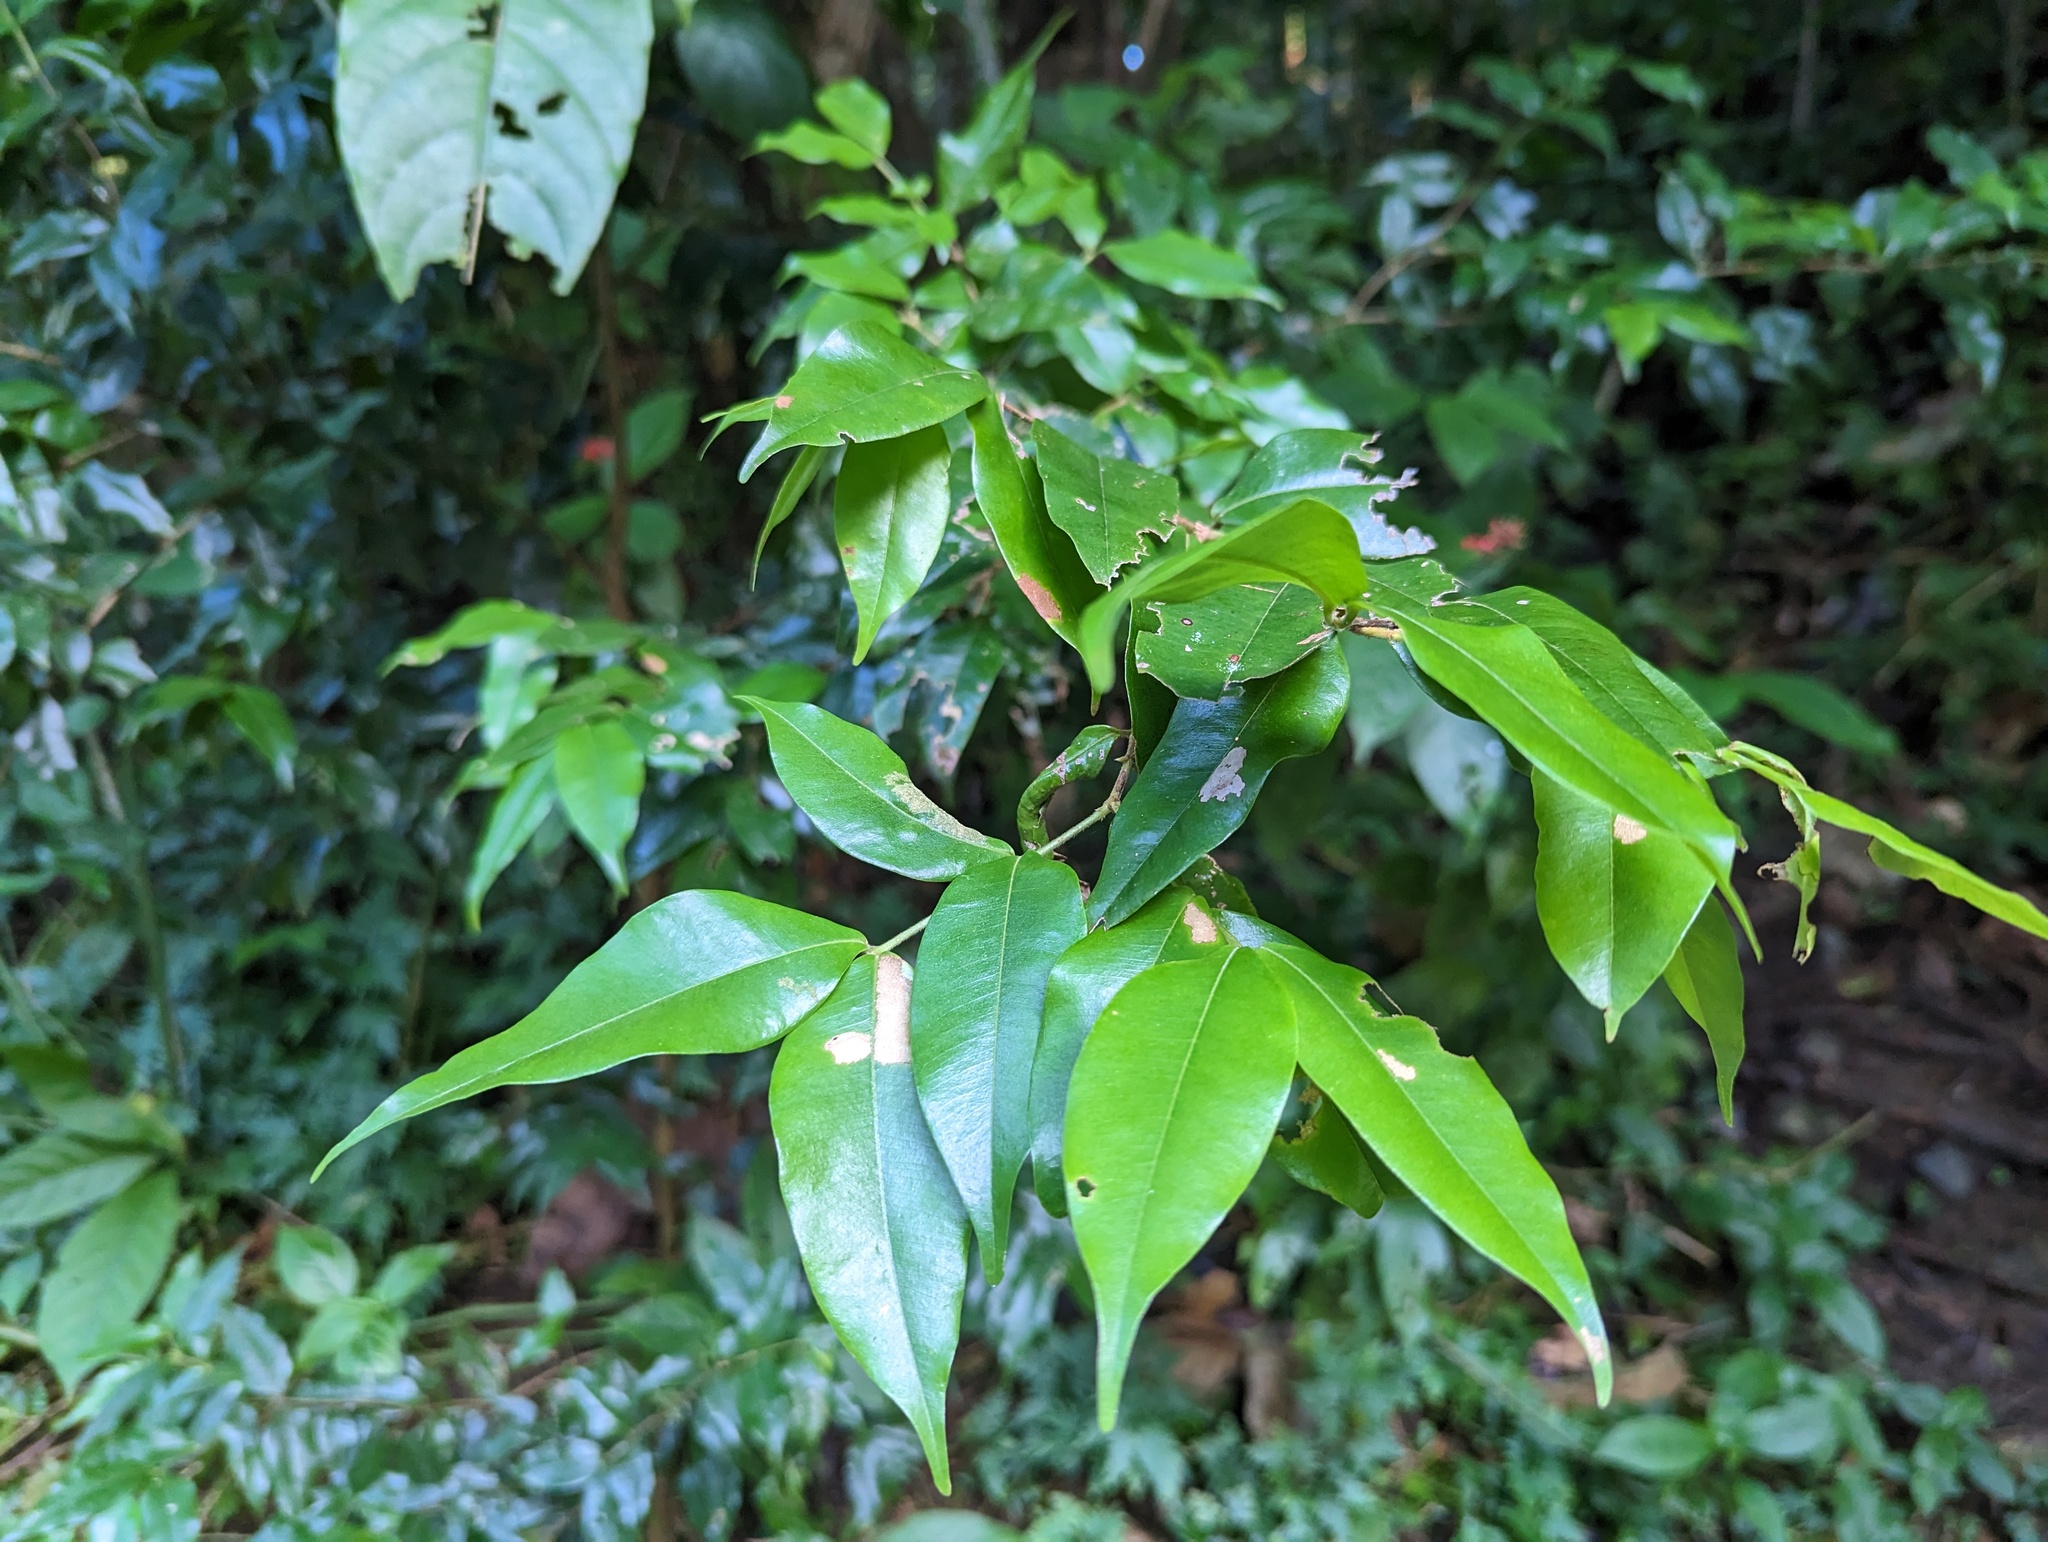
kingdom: Plantae
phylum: Tracheophyta
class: Magnoliopsida
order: Myrtales
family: Myrtaceae
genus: Myrcia
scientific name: Myrcia splendens
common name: Surinam cherry
